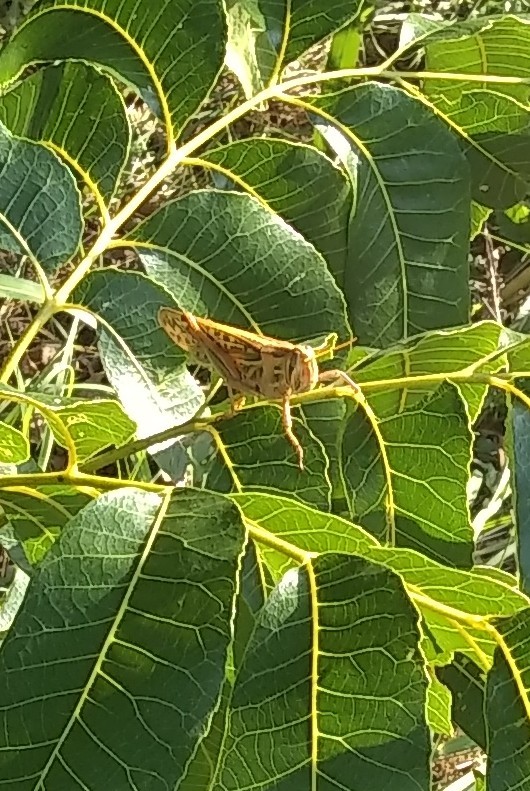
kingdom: Animalia
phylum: Arthropoda
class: Insecta
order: Orthoptera
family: Acrididae
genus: Schistocerca
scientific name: Schistocerca americana
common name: American bird locust
